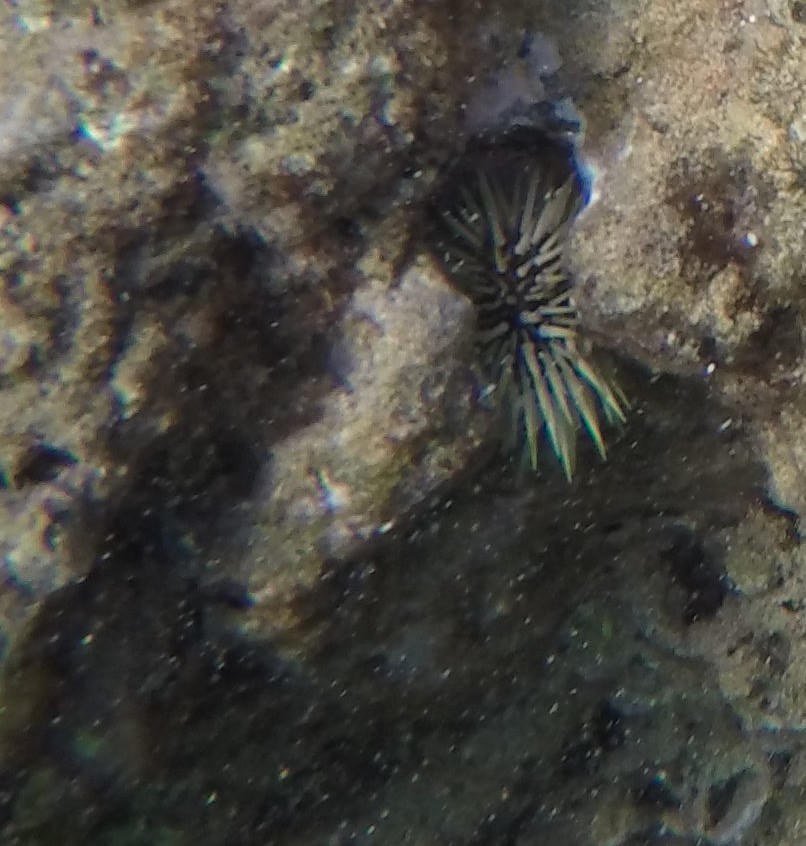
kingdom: Animalia
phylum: Echinodermata
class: Echinoidea
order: Camarodonta
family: Echinometridae
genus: Echinometra
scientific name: Echinometra mathaei
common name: Rock-boring urchin
